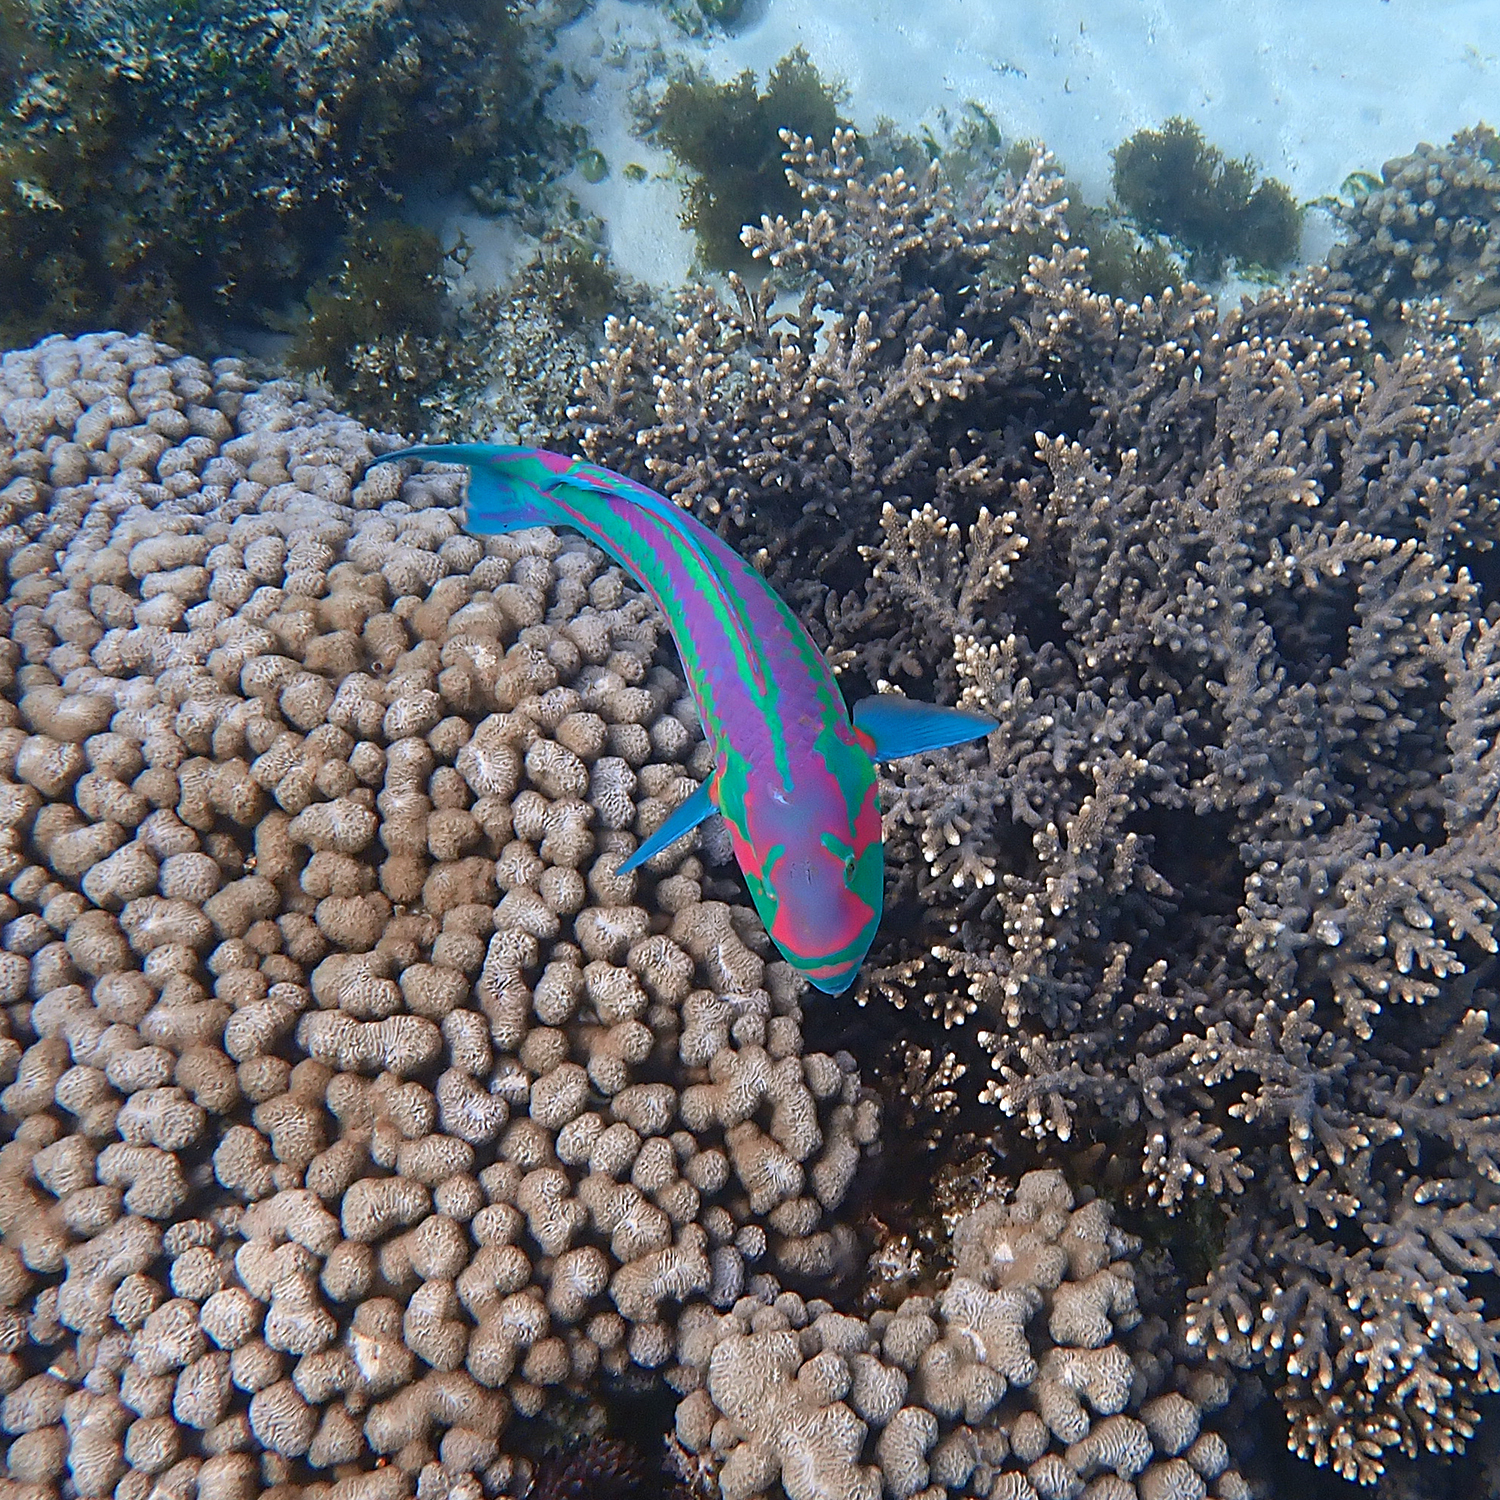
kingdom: Animalia
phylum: Chordata
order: Perciformes
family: Labridae
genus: Thalassoma
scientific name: Thalassoma purpureum
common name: Parrotfish
